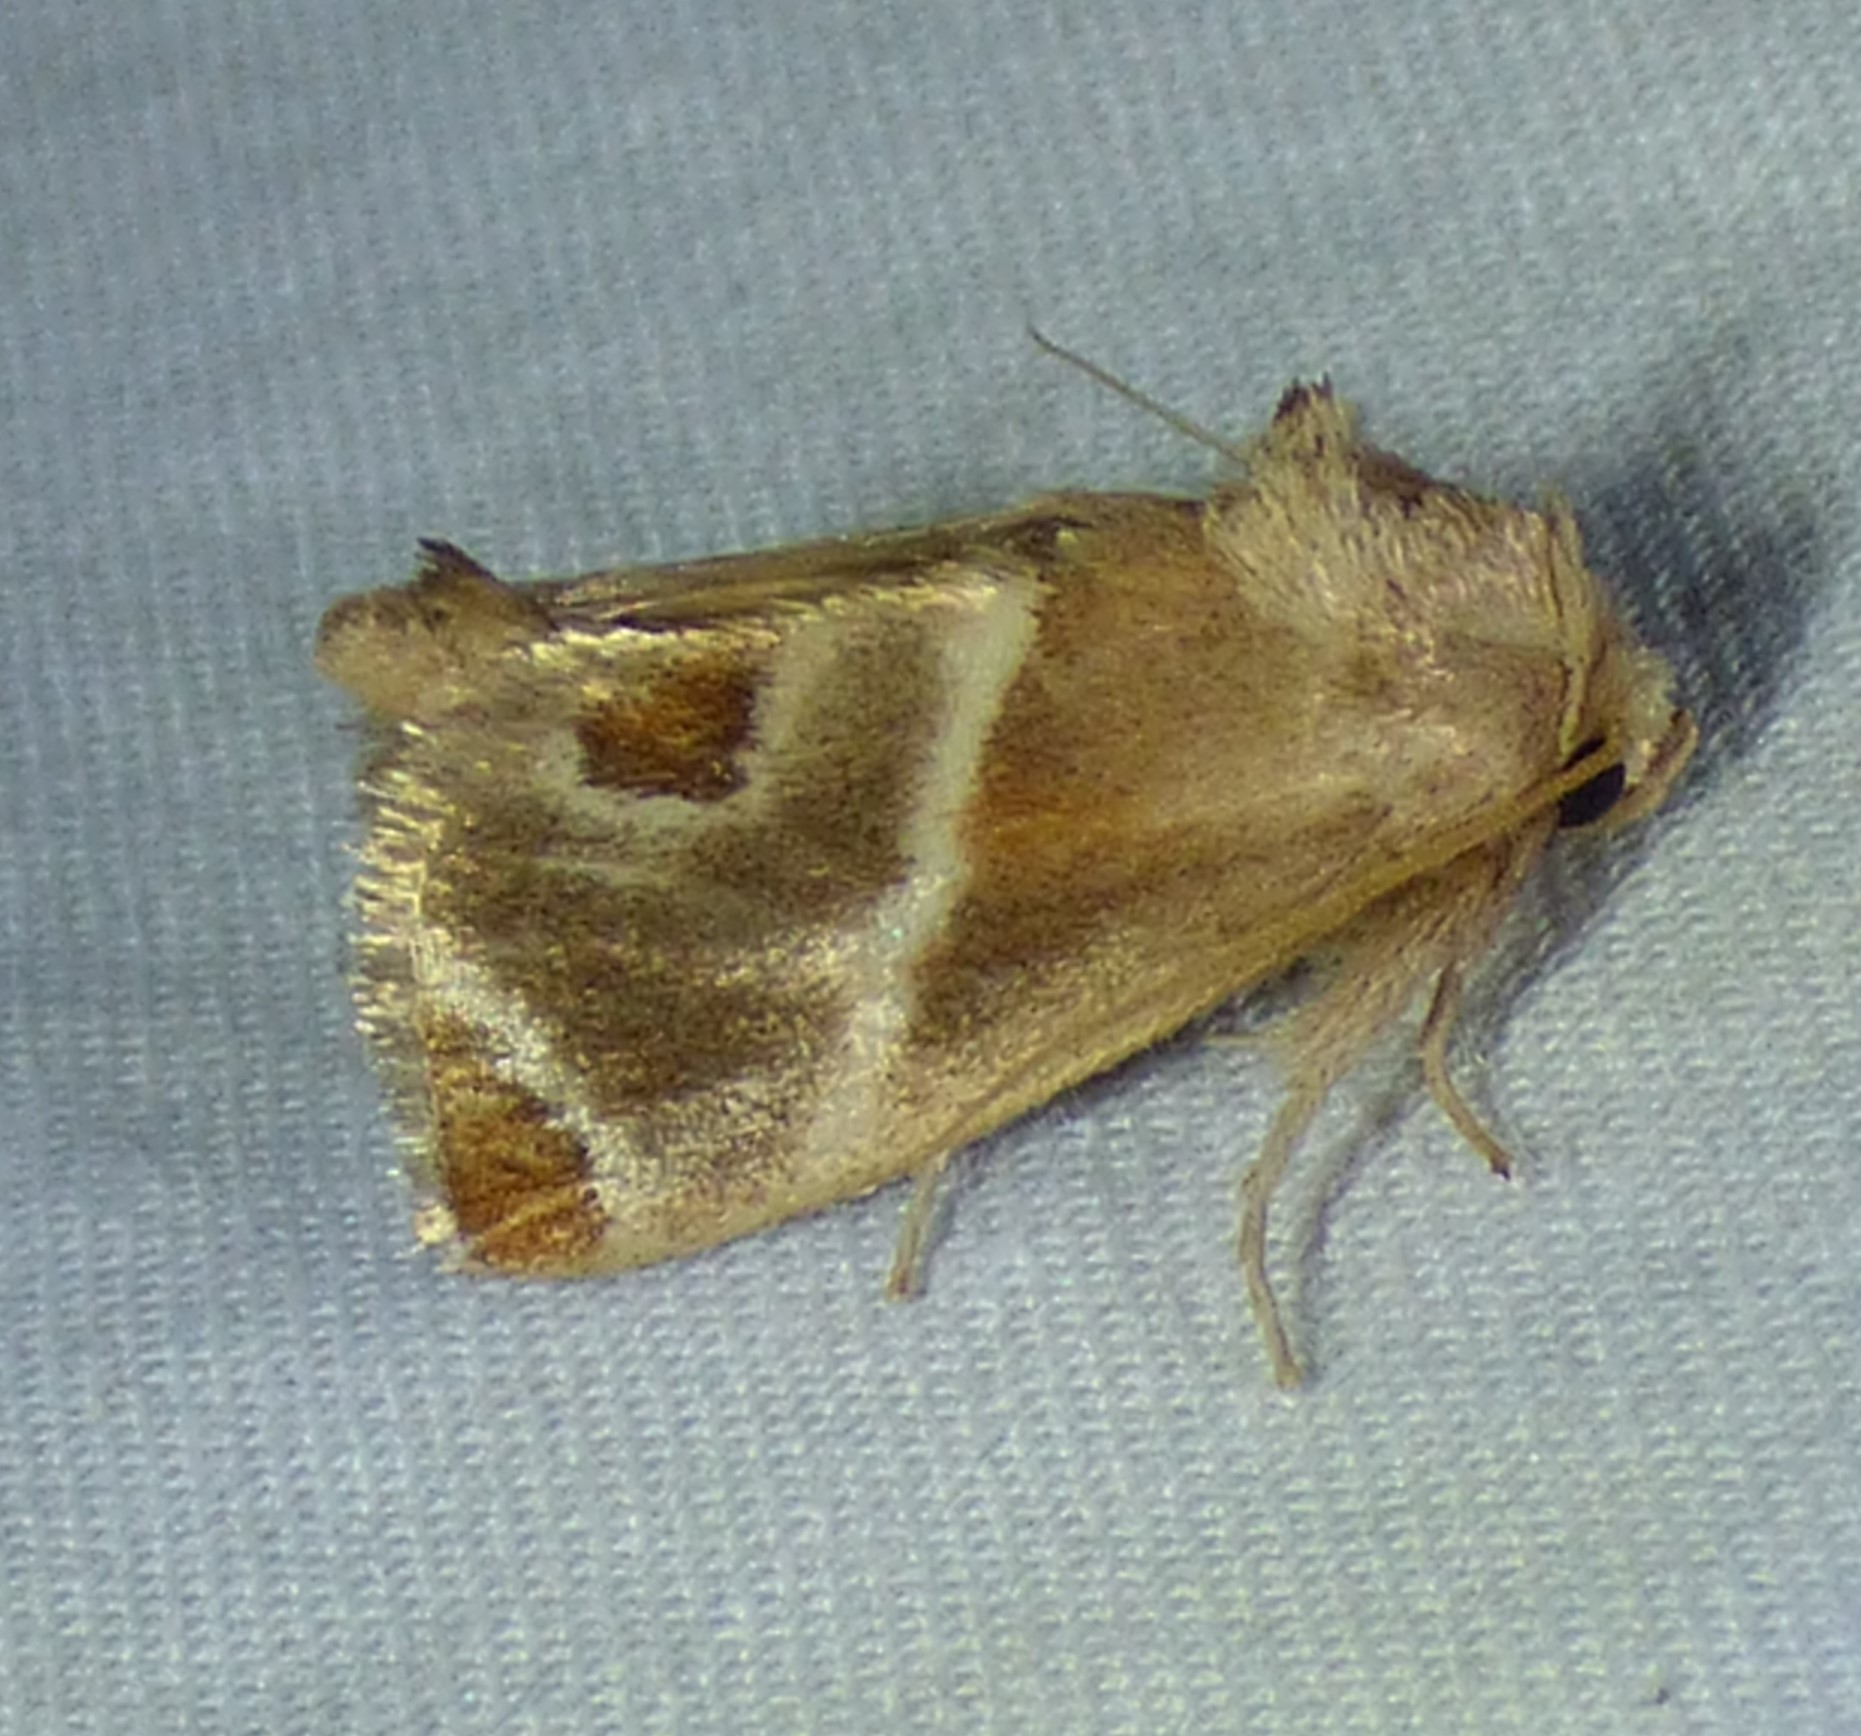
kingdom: Animalia
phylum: Arthropoda
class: Insecta
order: Lepidoptera
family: Limacodidae
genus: Apoda
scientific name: Apoda biguttata
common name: Shagreened slug moth
